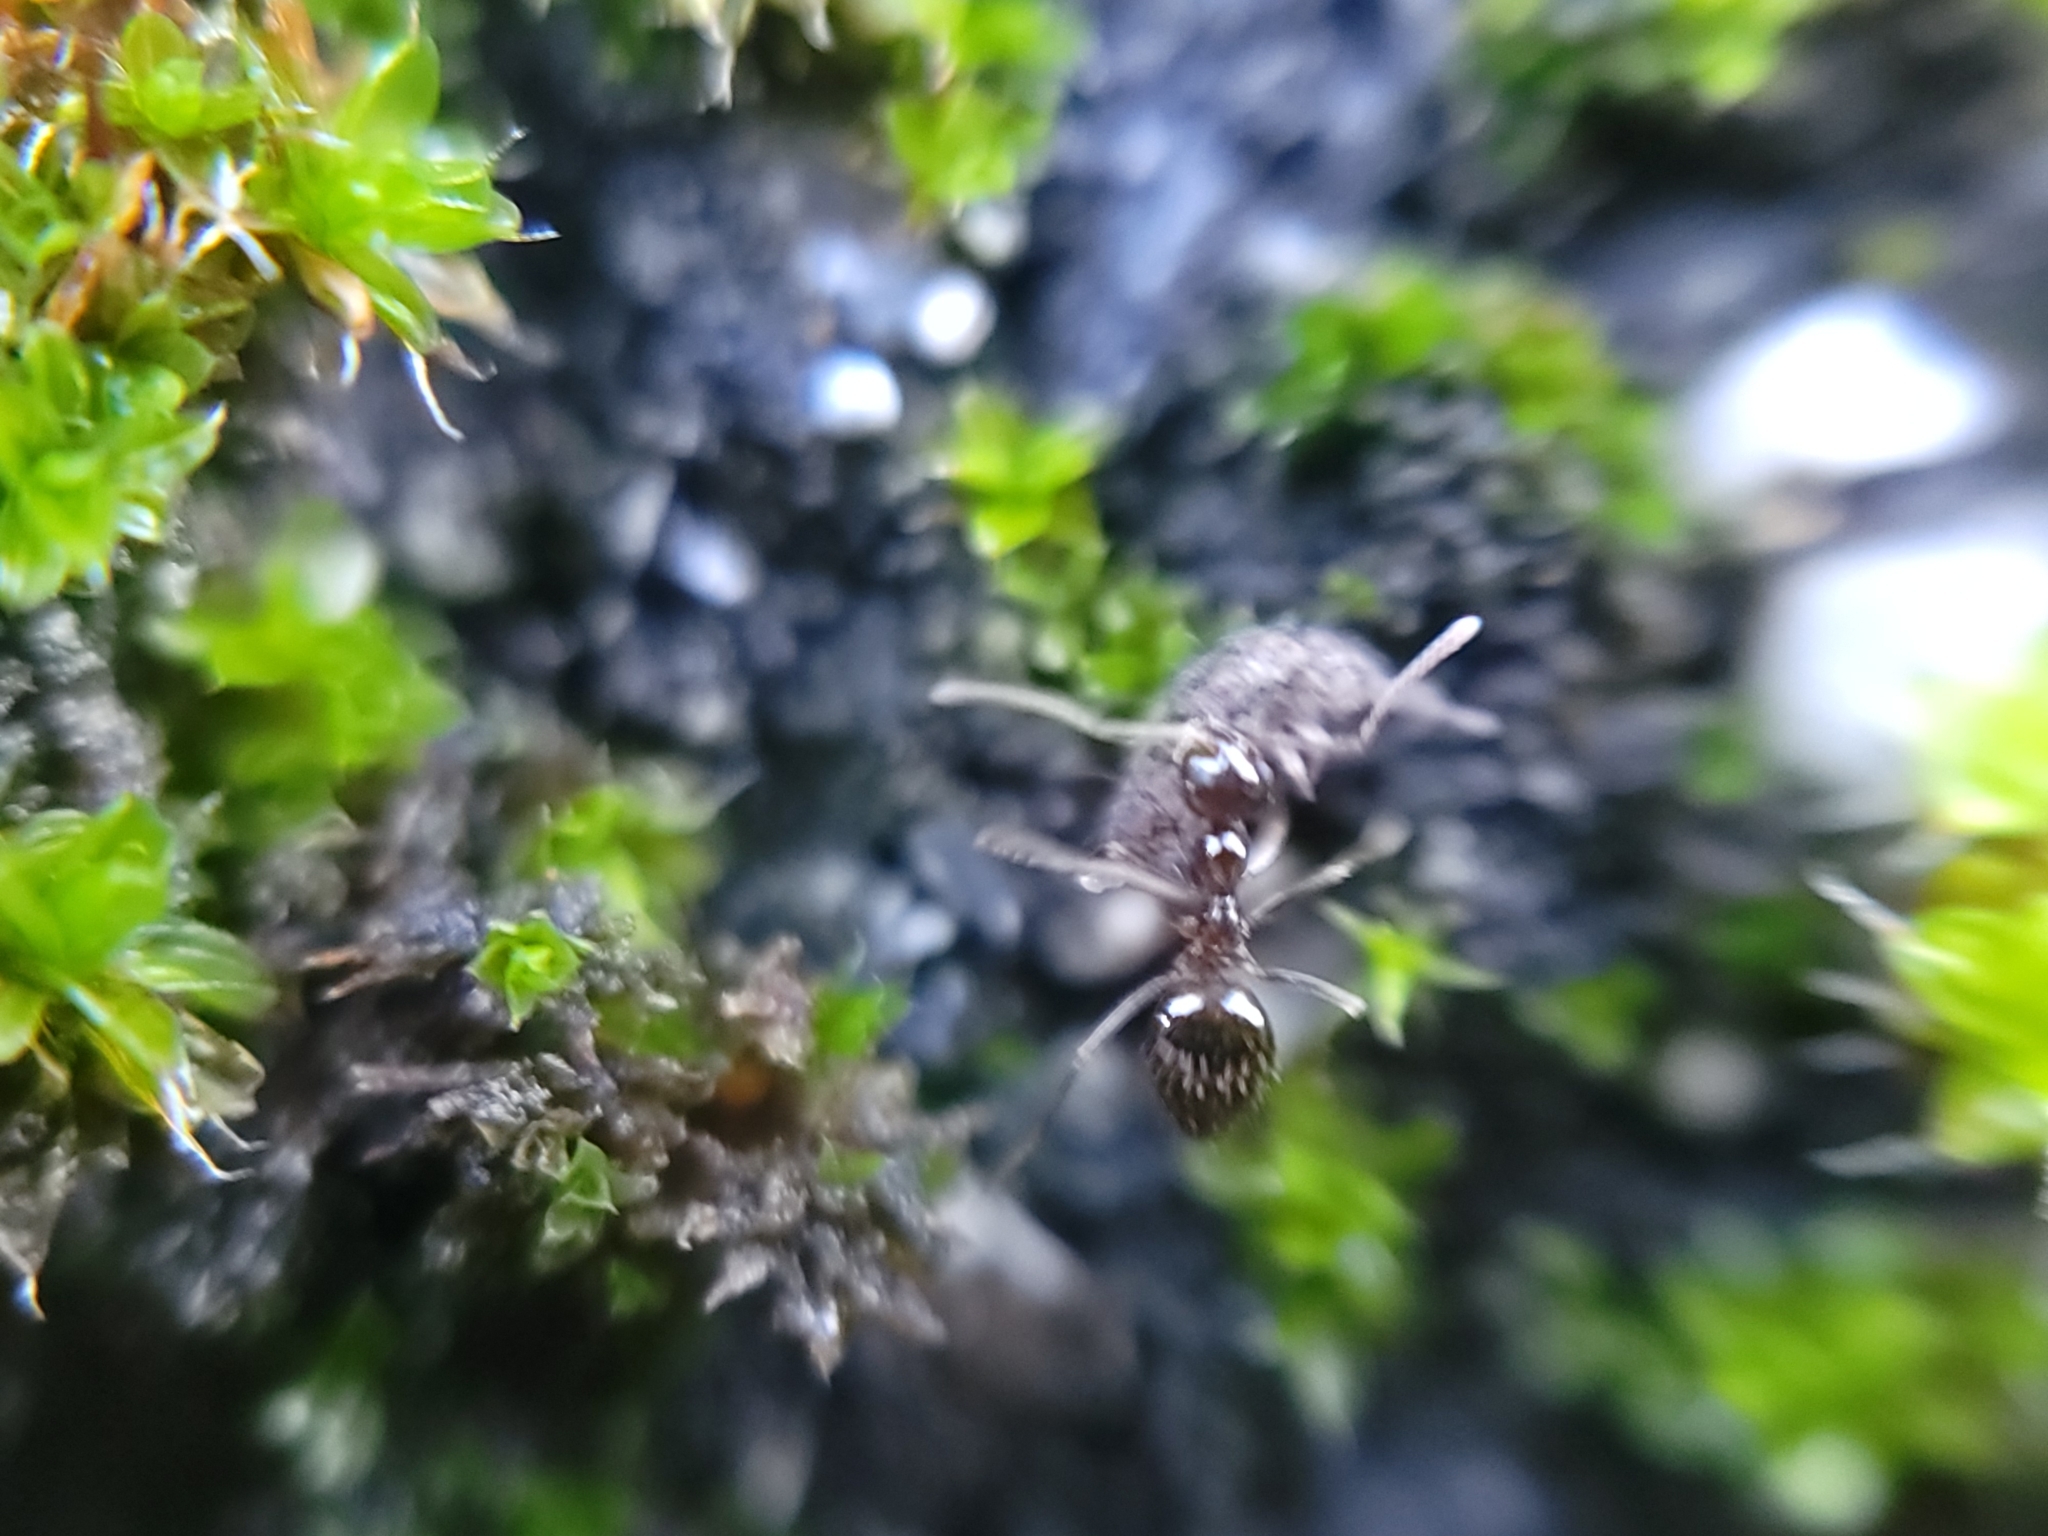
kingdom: Animalia
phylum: Arthropoda
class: Insecta
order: Hymenoptera
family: Formicidae
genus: Prenolepis
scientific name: Prenolepis imparis
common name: Small honey ant
